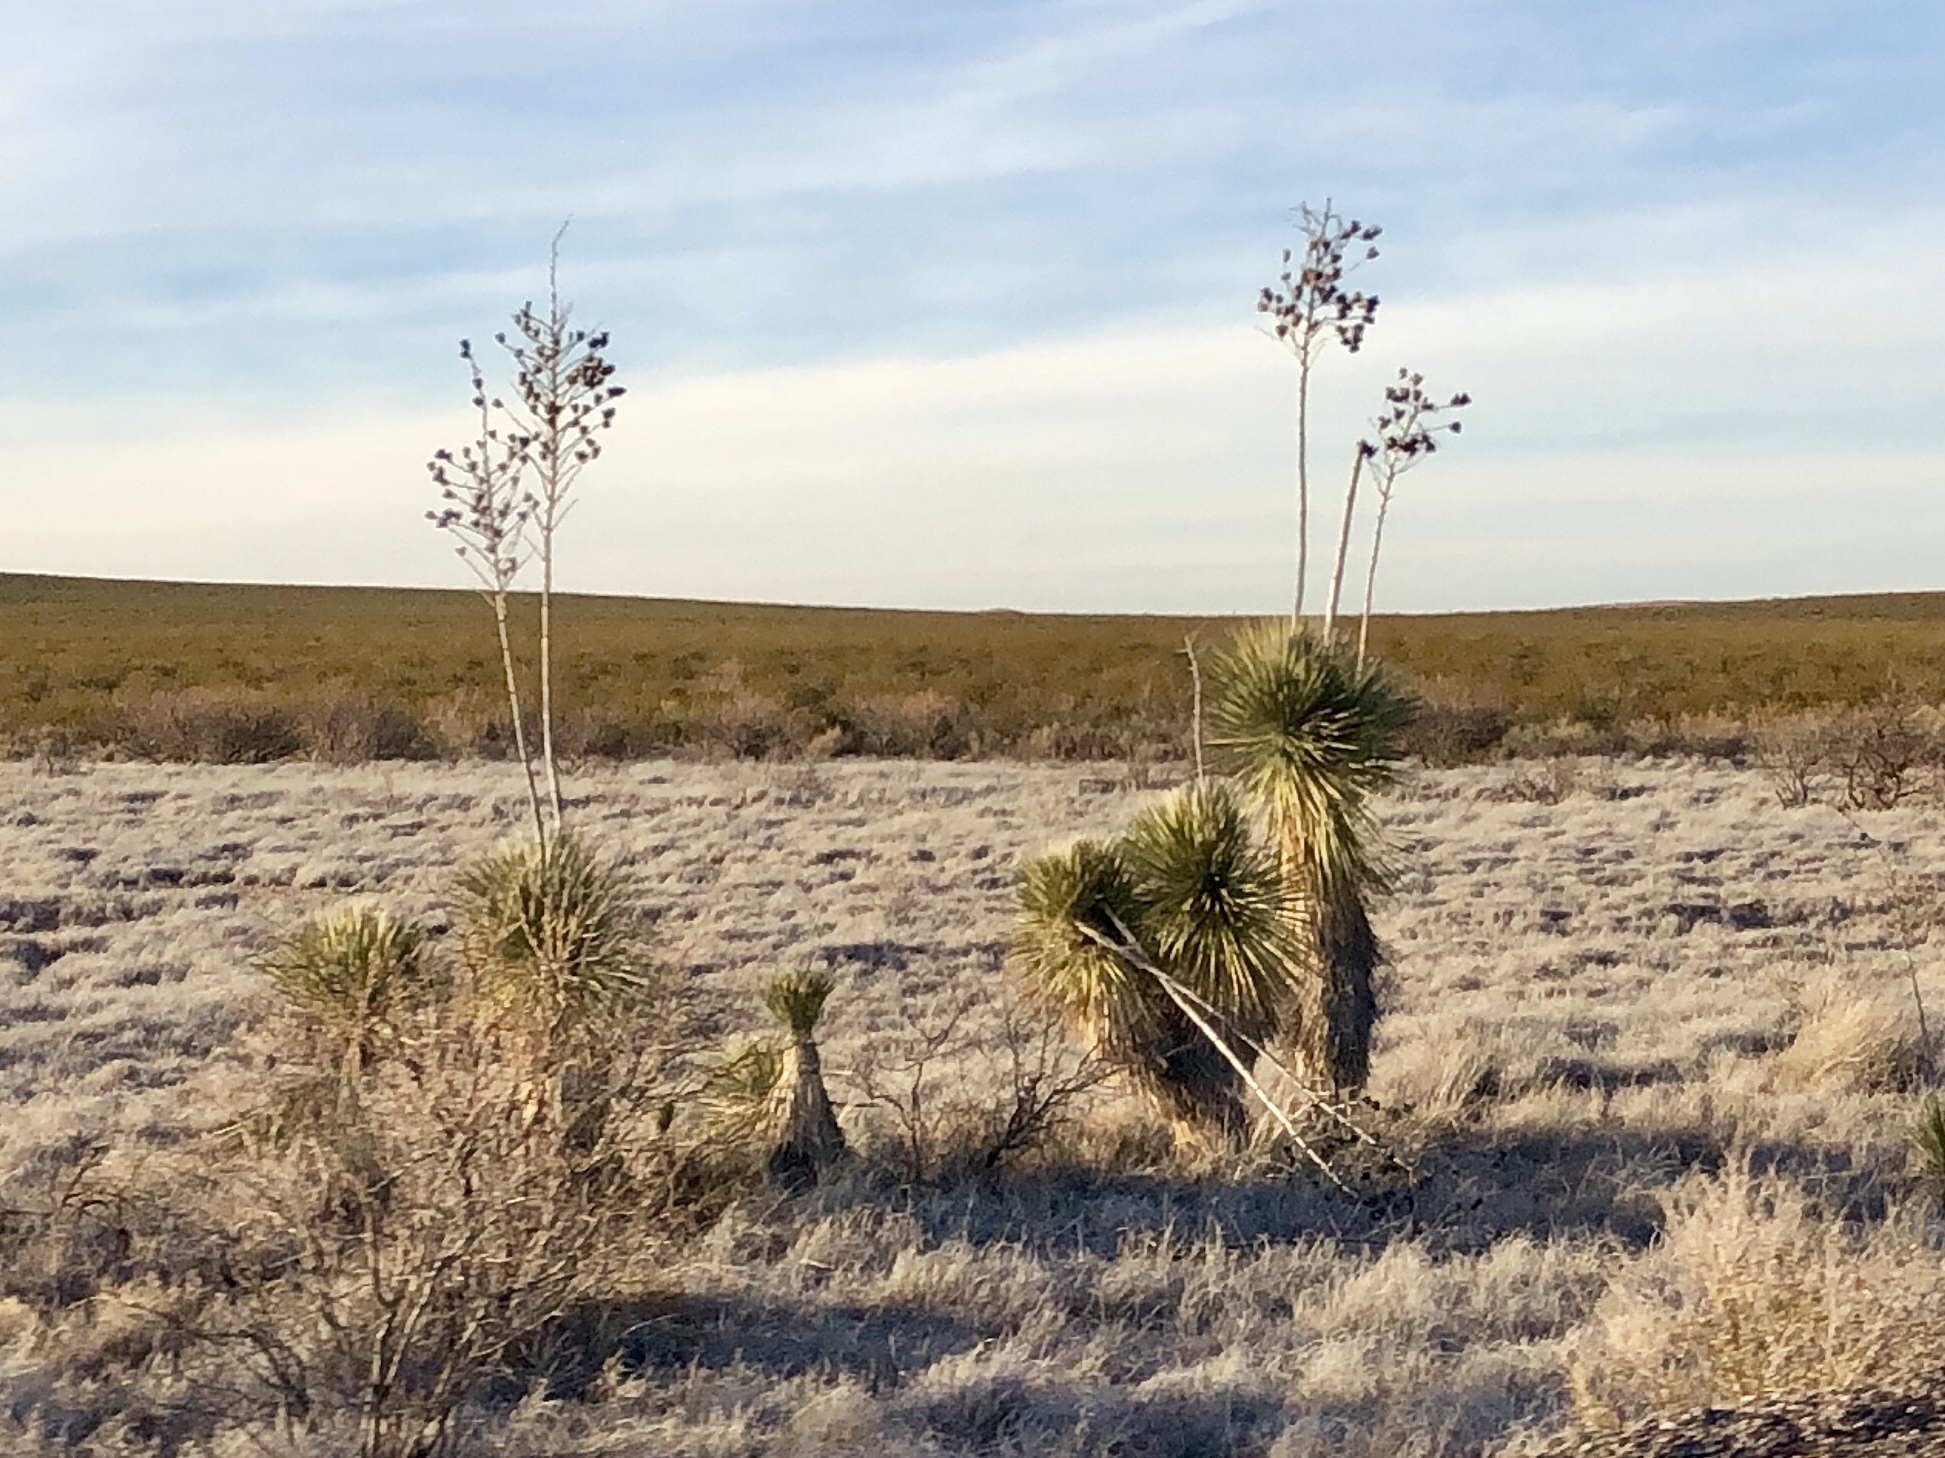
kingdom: Plantae
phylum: Tracheophyta
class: Liliopsida
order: Asparagales
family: Asparagaceae
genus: Yucca
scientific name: Yucca elata
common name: Palmella
